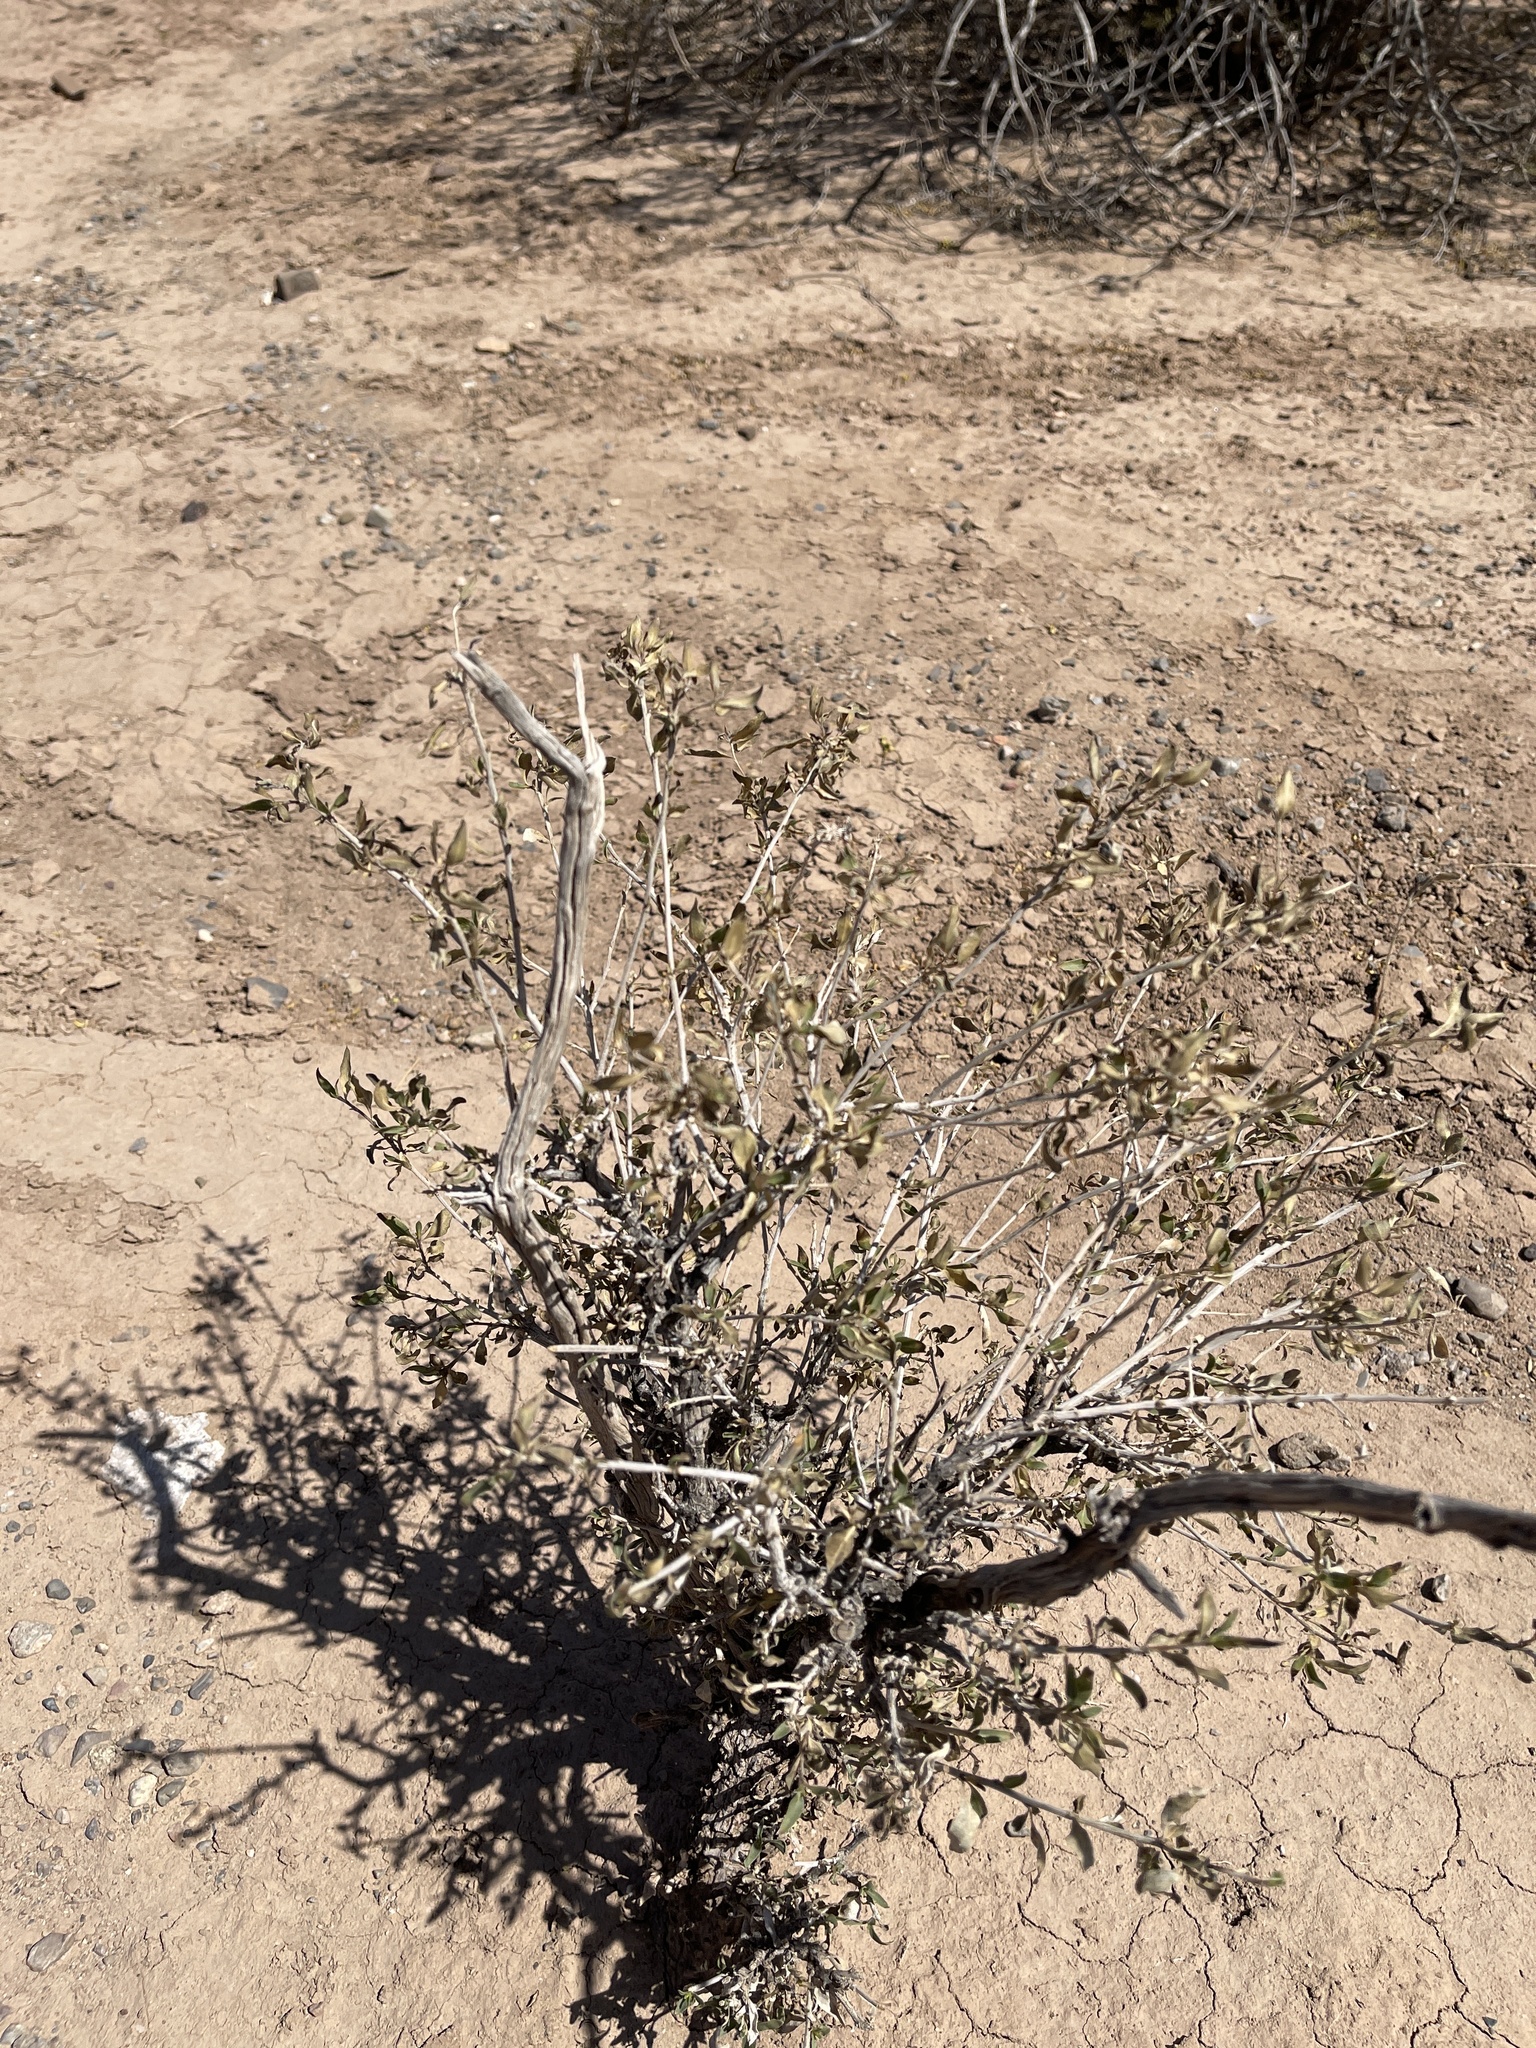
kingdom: Plantae
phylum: Tracheophyta
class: Magnoliopsida
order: Asterales
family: Asteraceae
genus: Flourensia
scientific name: Flourensia cernua
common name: Varnishbush
